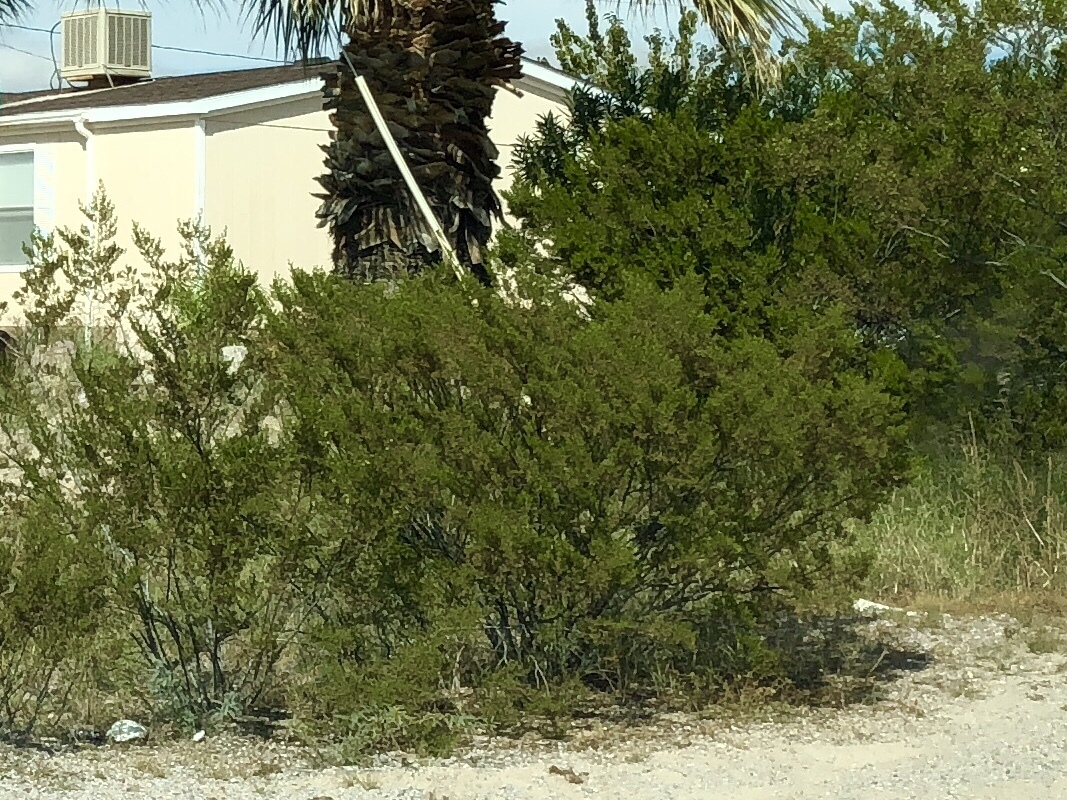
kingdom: Plantae
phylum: Tracheophyta
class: Magnoliopsida
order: Zygophyllales
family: Zygophyllaceae
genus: Larrea
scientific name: Larrea tridentata
